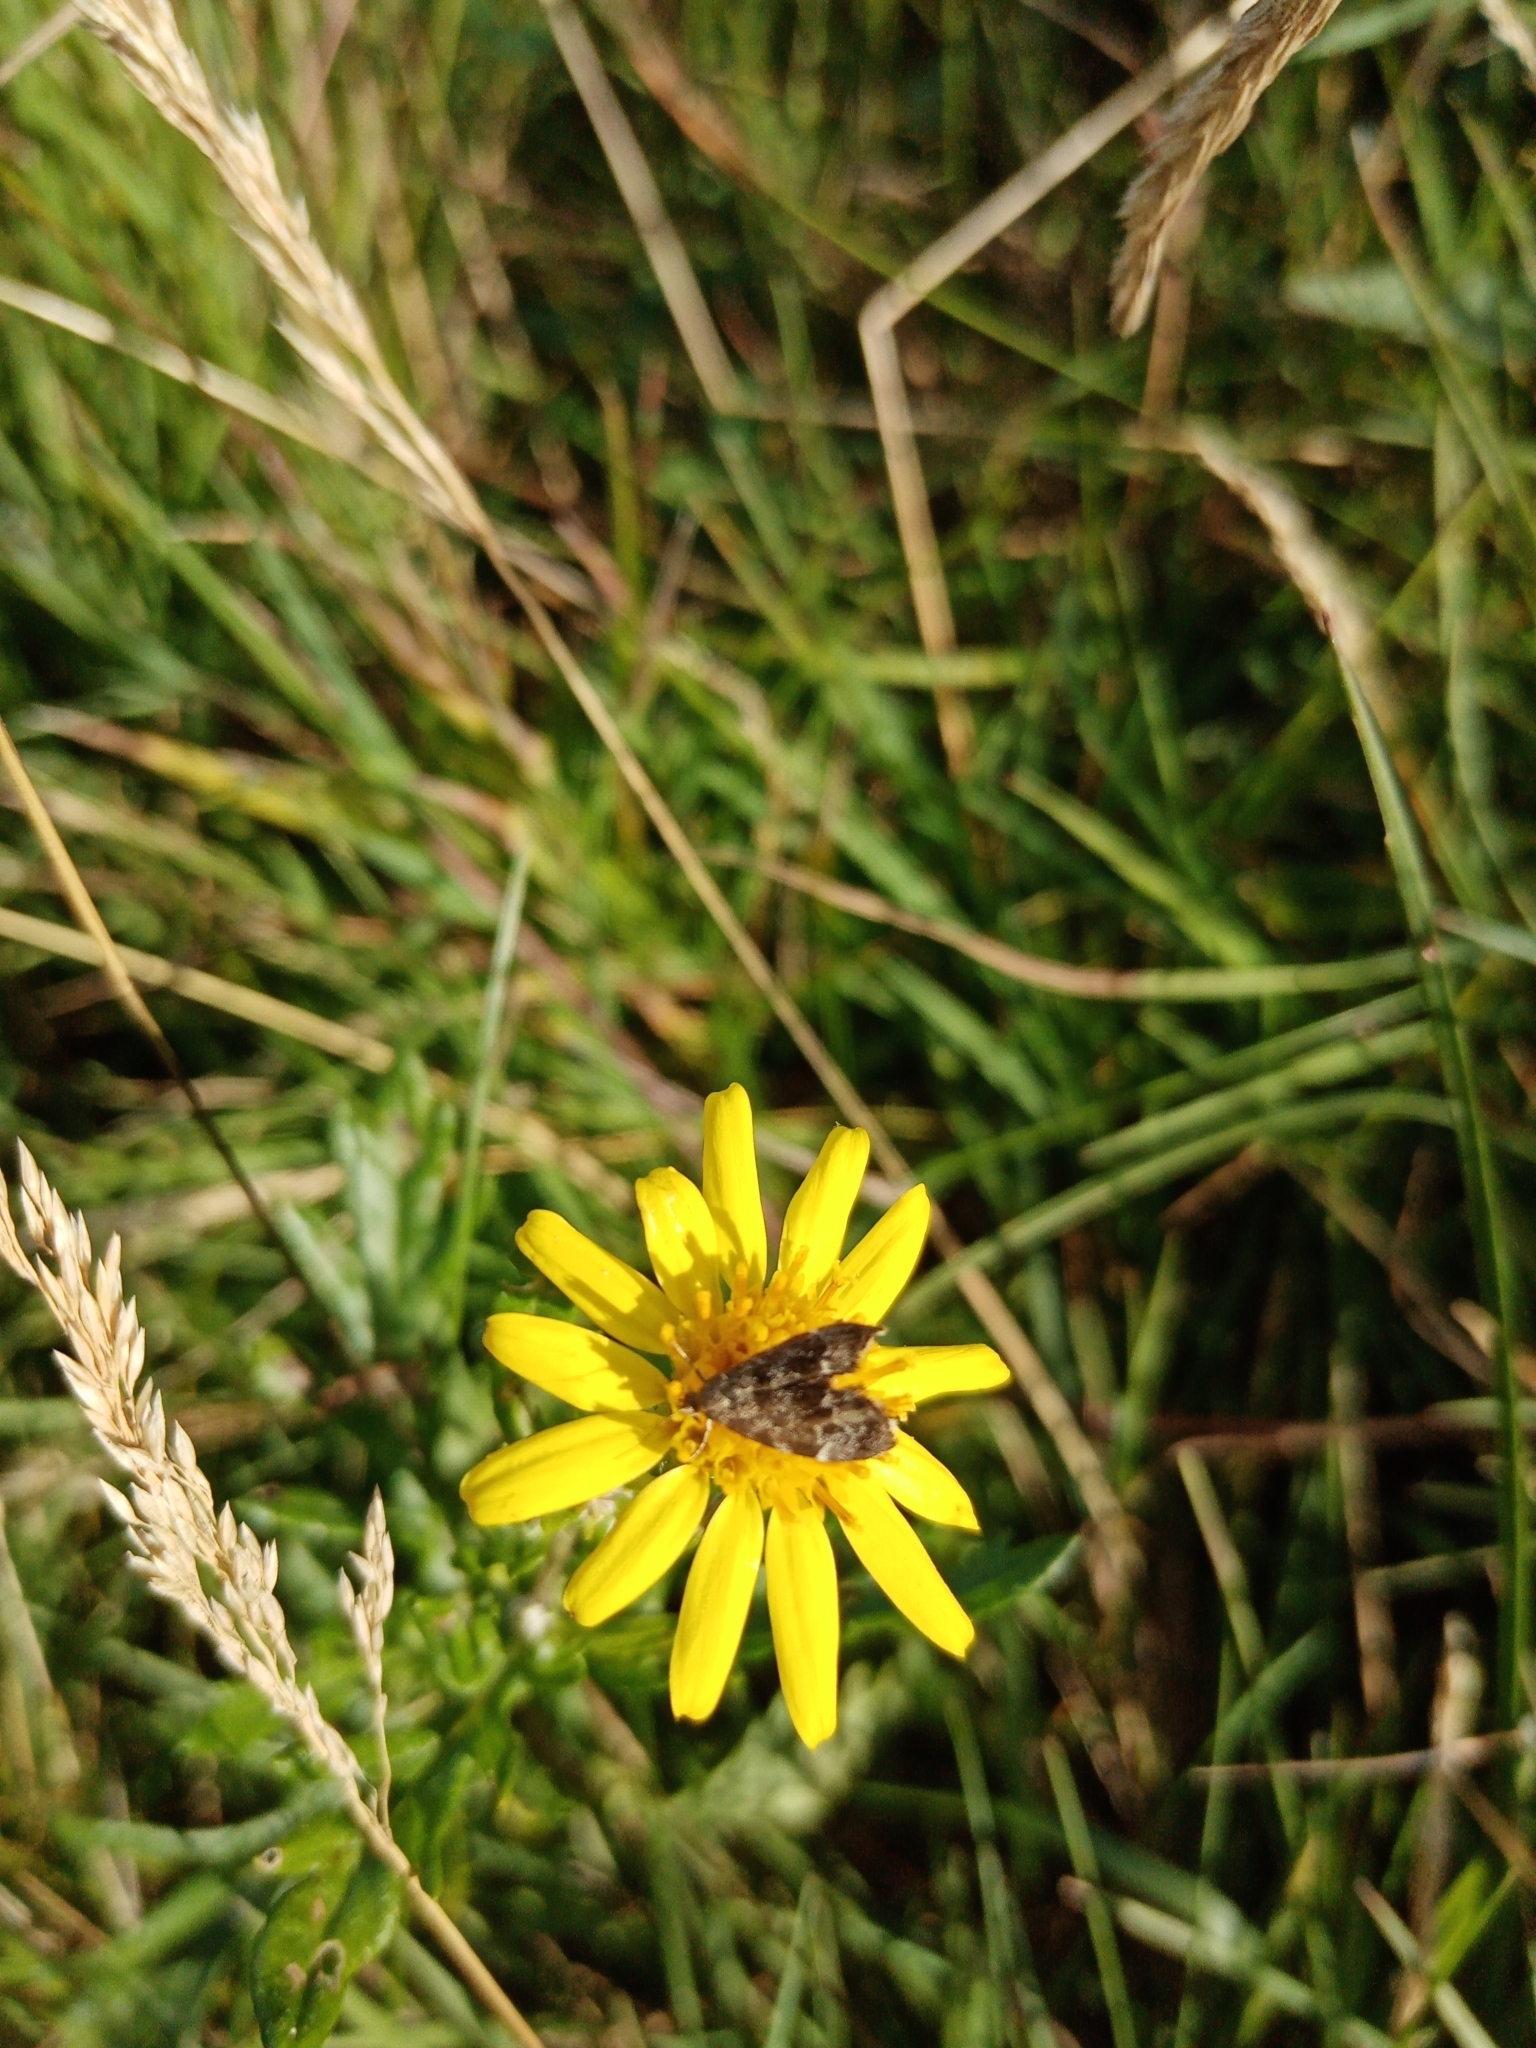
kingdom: Animalia
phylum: Arthropoda
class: Insecta
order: Lepidoptera
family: Choreutidae
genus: Anthophila
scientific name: Anthophila fabriciana
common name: Nettle-tap
